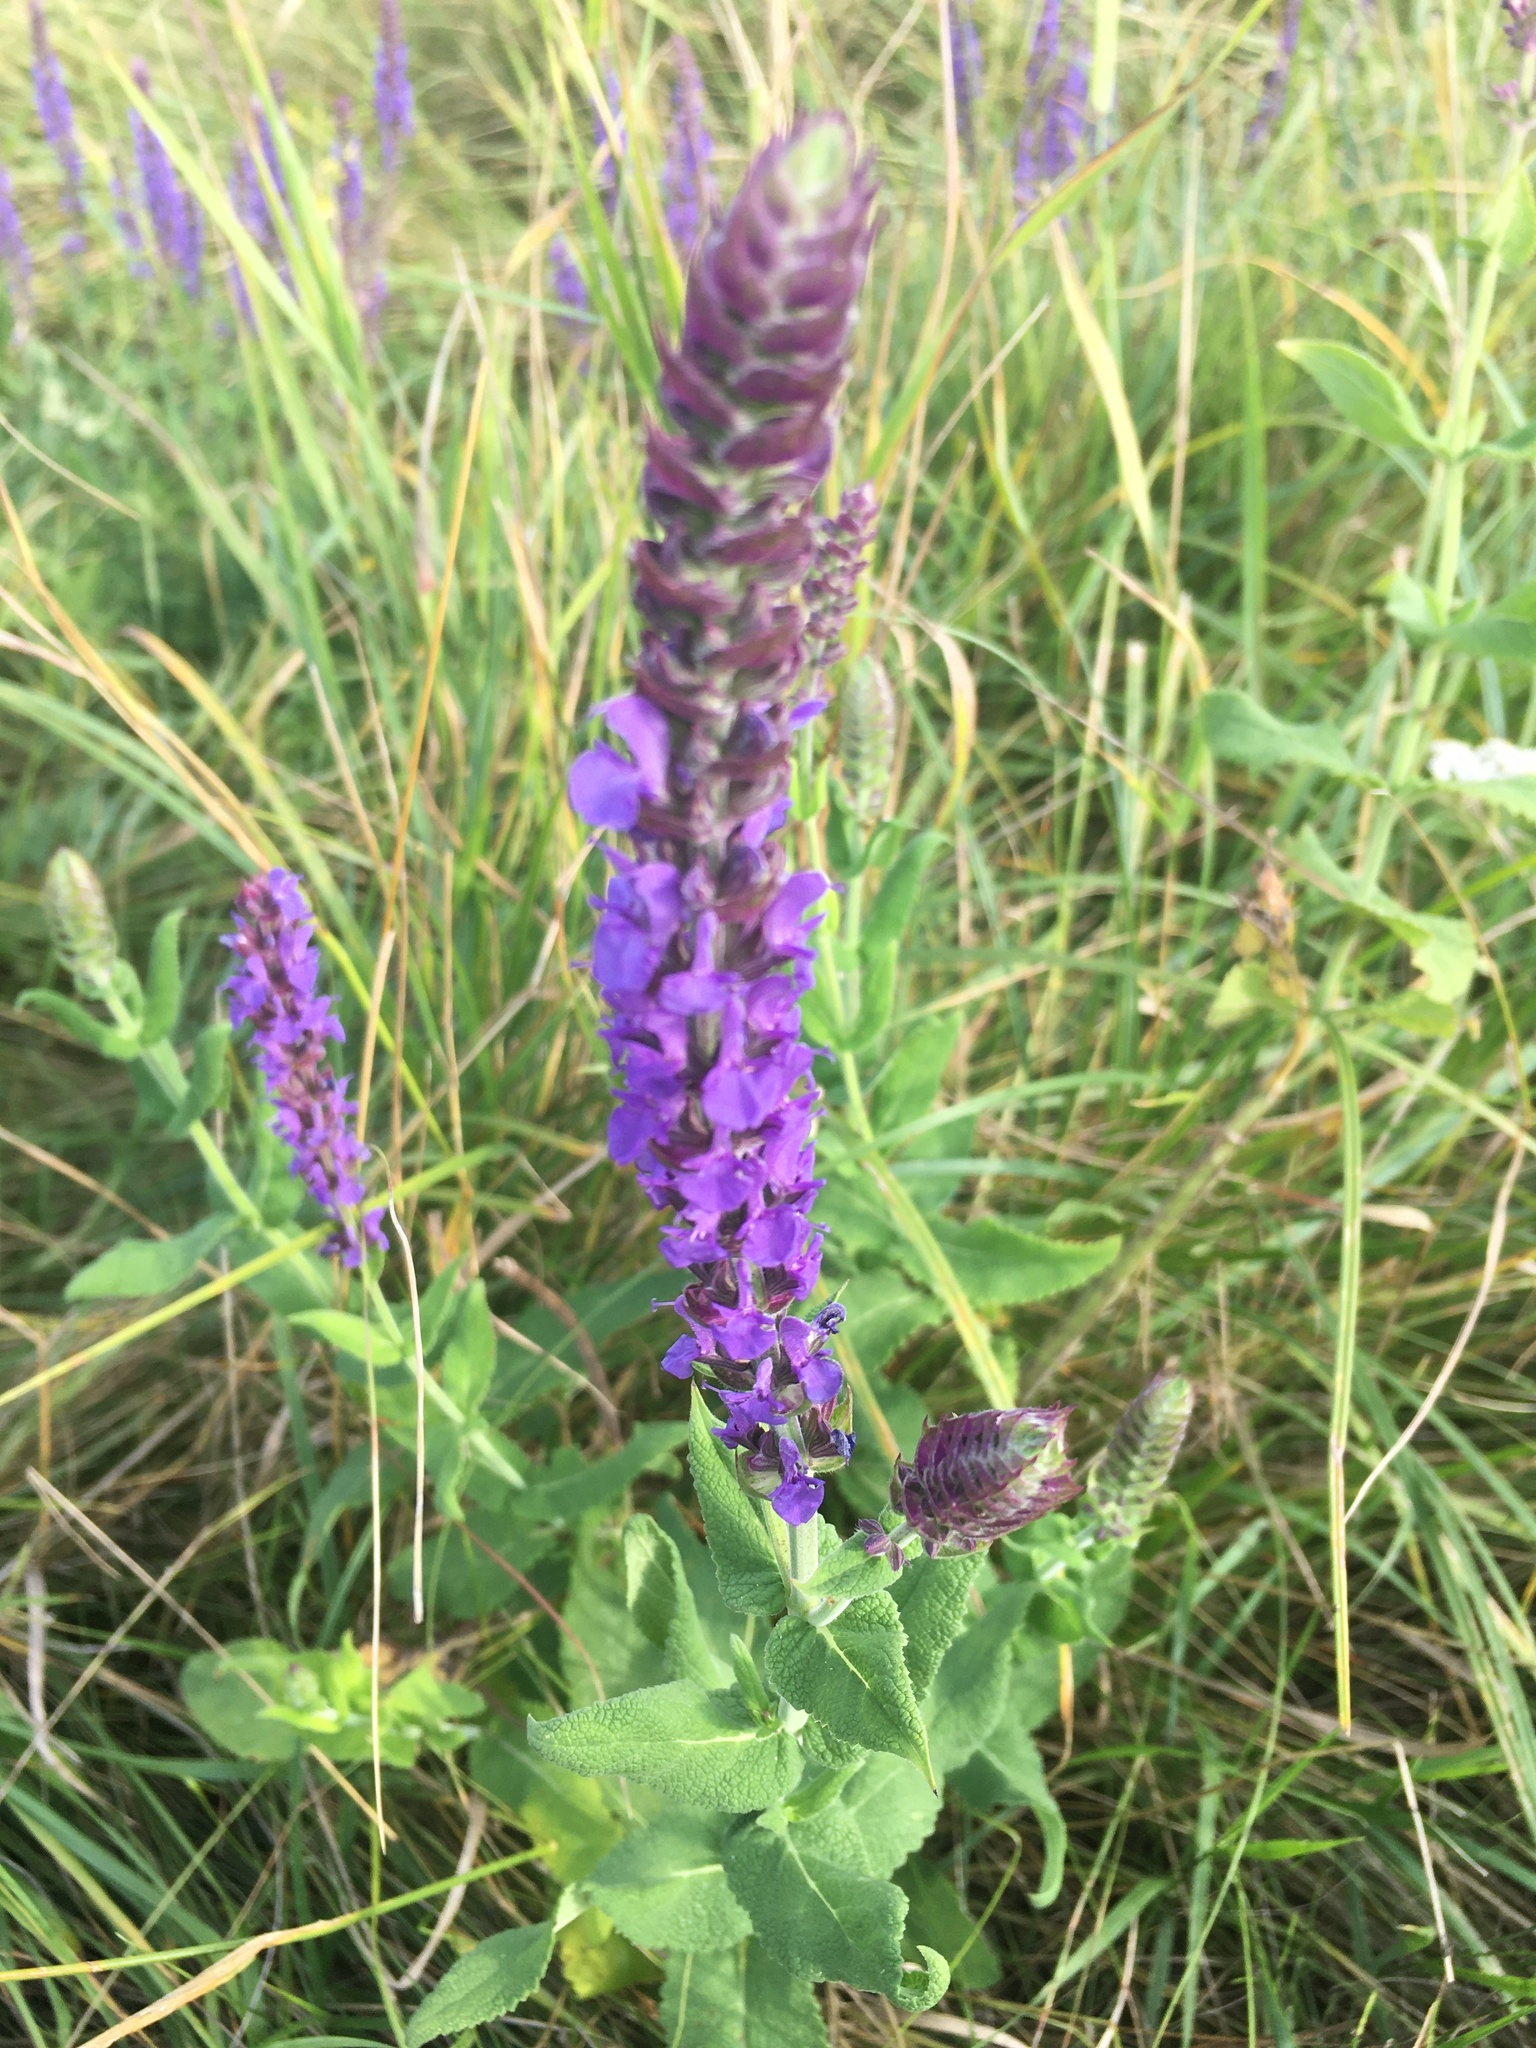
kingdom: Plantae
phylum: Tracheophyta
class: Magnoliopsida
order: Lamiales
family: Lamiaceae
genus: Salvia
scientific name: Salvia nemorosa
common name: Balkan clary
